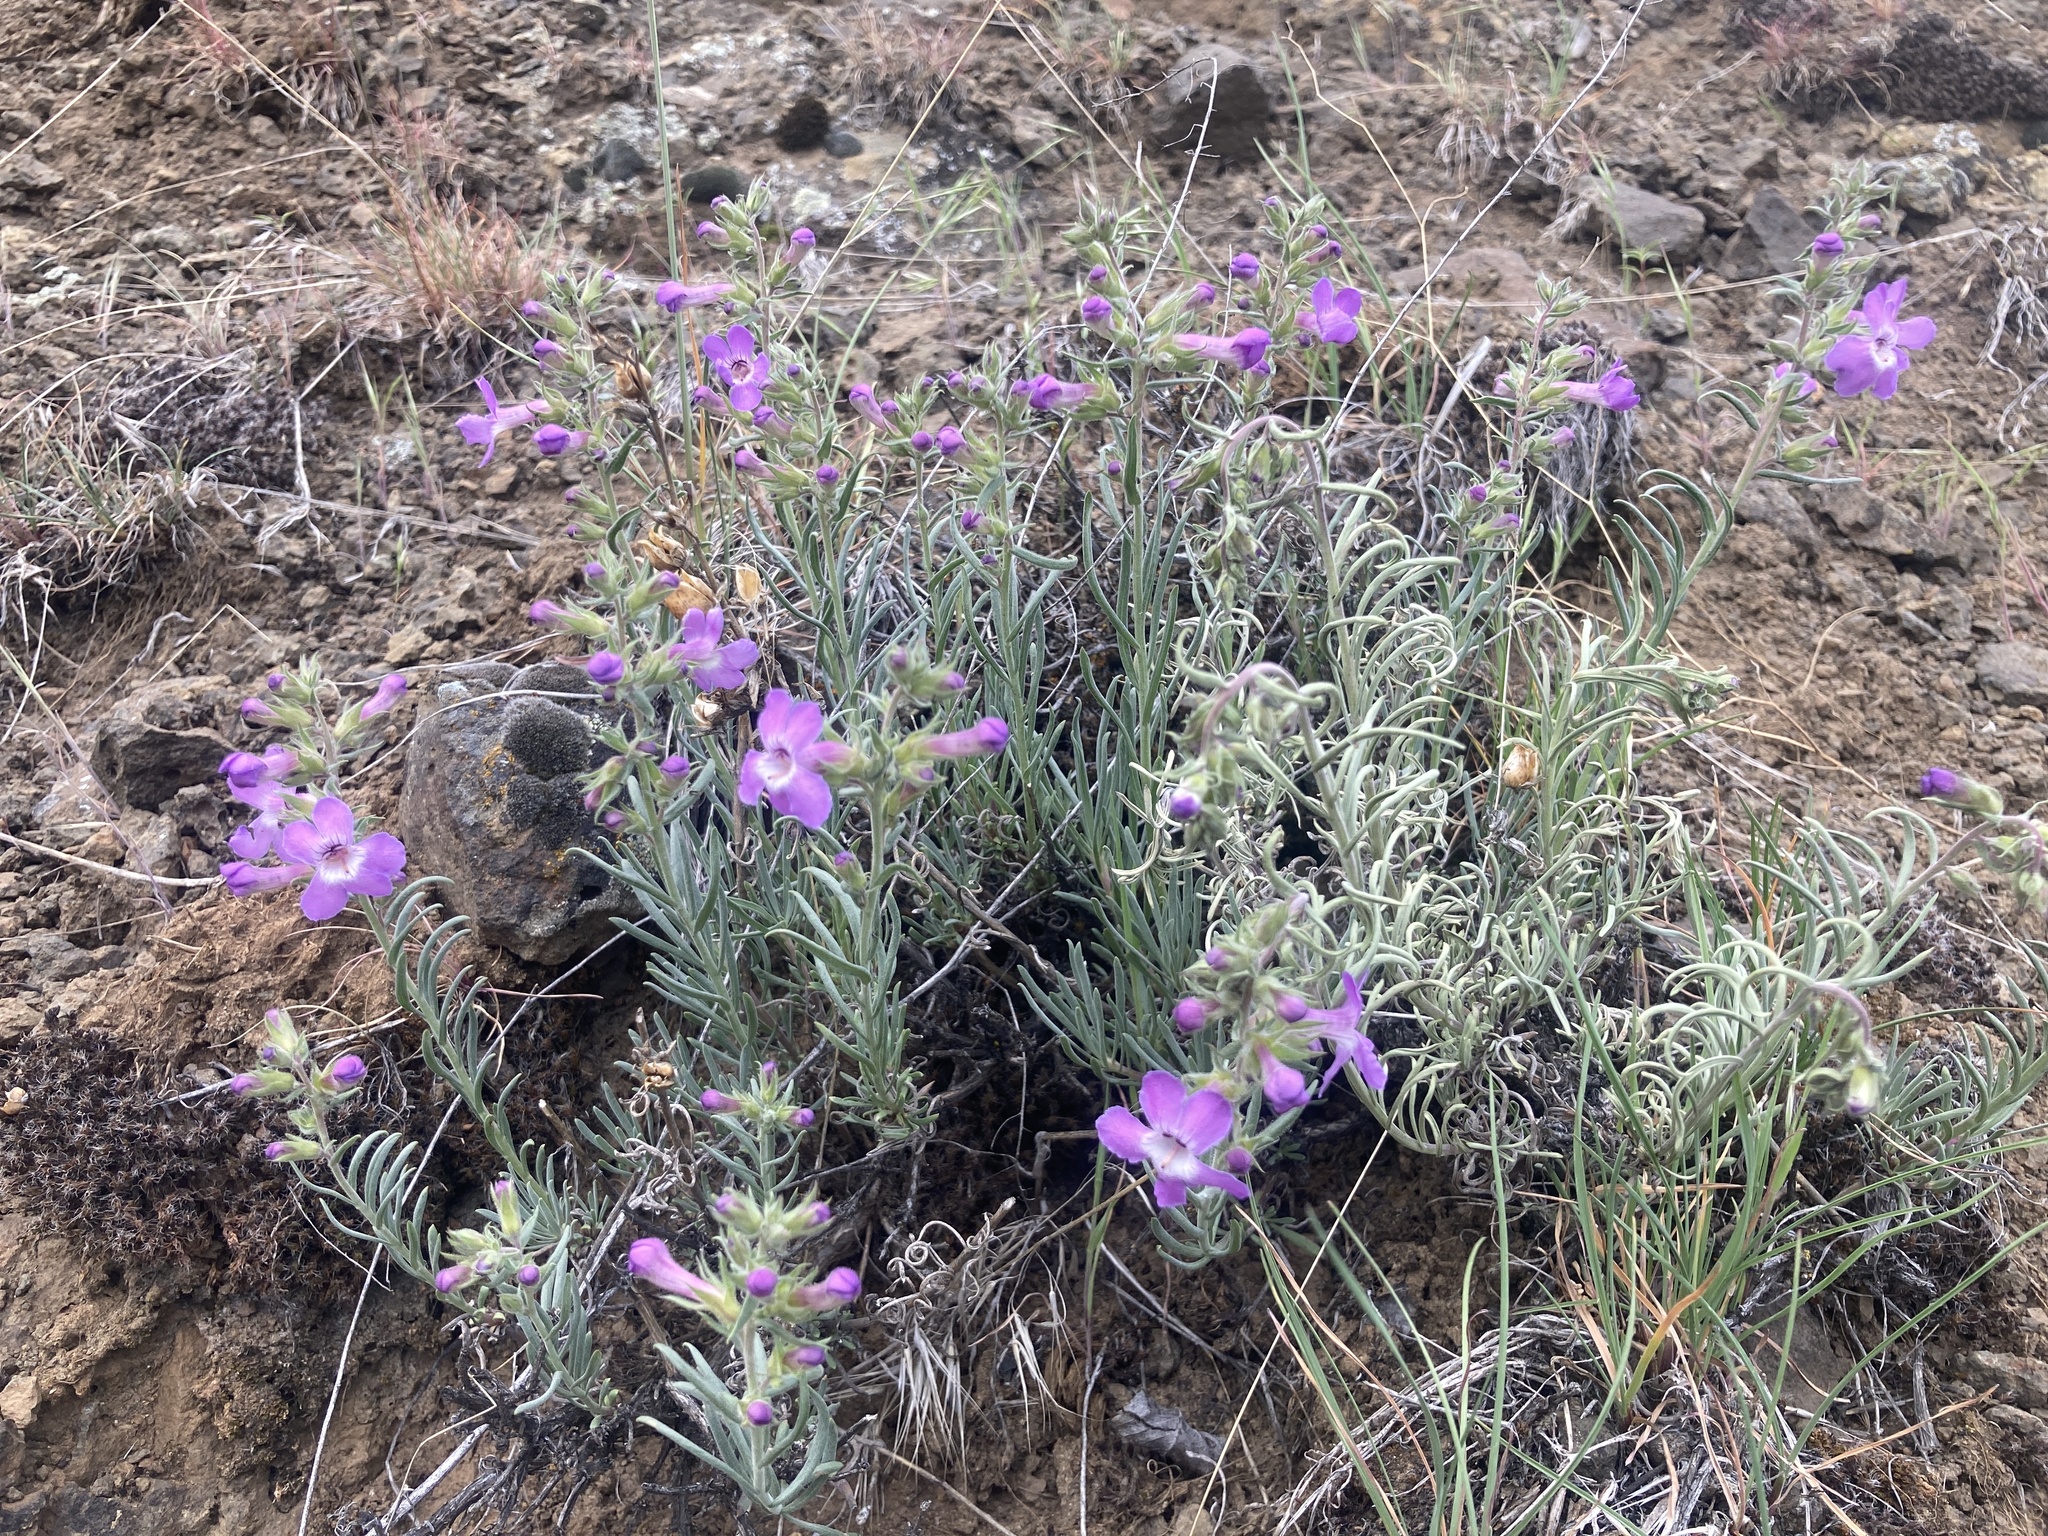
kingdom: Plantae
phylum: Tracheophyta
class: Magnoliopsida
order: Lamiales
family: Plantaginaceae
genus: Penstemon
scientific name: Penstemon gairdneri
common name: Gairdner's penstemon
